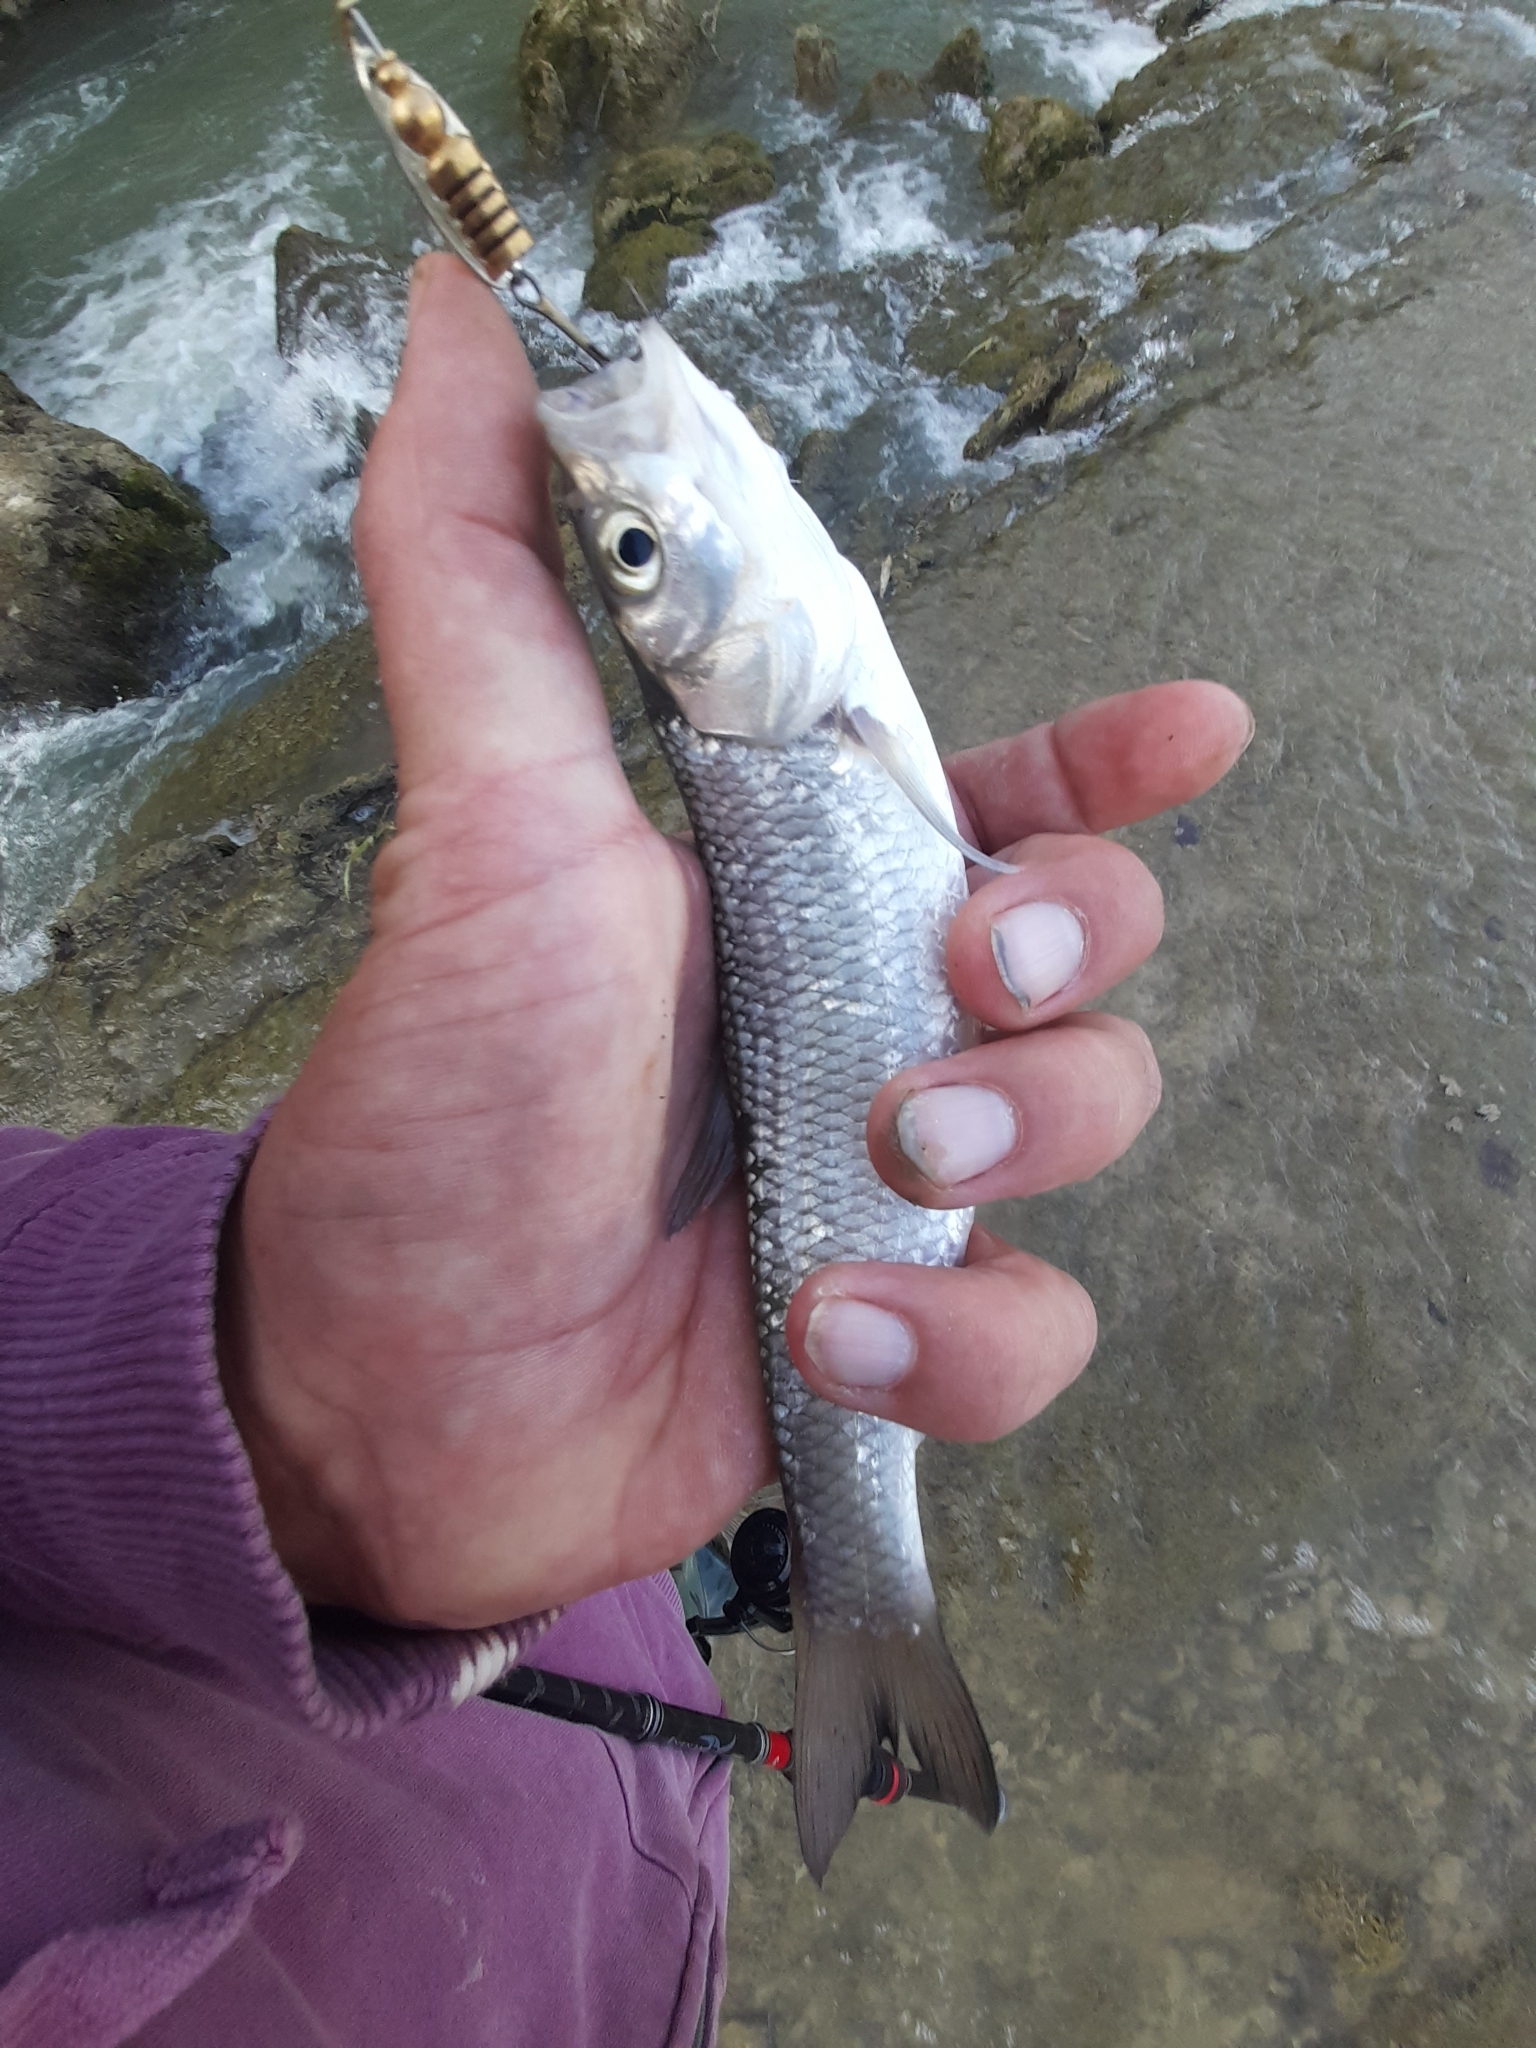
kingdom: Animalia
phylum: Chordata
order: Cypriniformes
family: Cyprinidae
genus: Squalius
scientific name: Squalius squalus
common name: Italian chub
